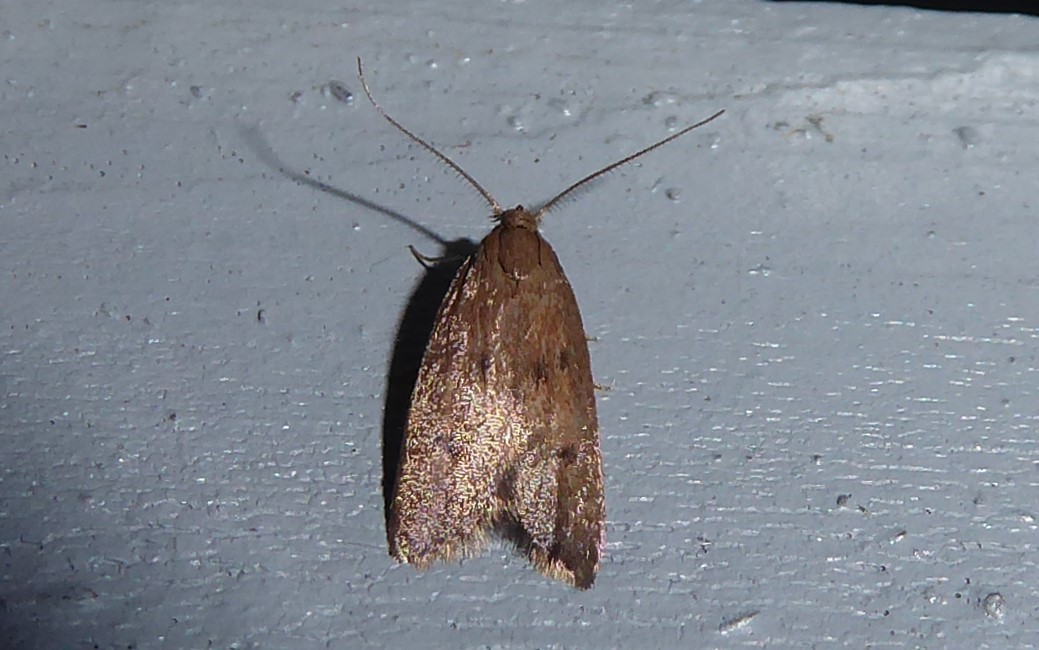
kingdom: Animalia
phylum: Arthropoda
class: Insecta
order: Lepidoptera
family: Oecophoridae
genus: Tachystola
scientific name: Tachystola acroxantha
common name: Ruddy streak
